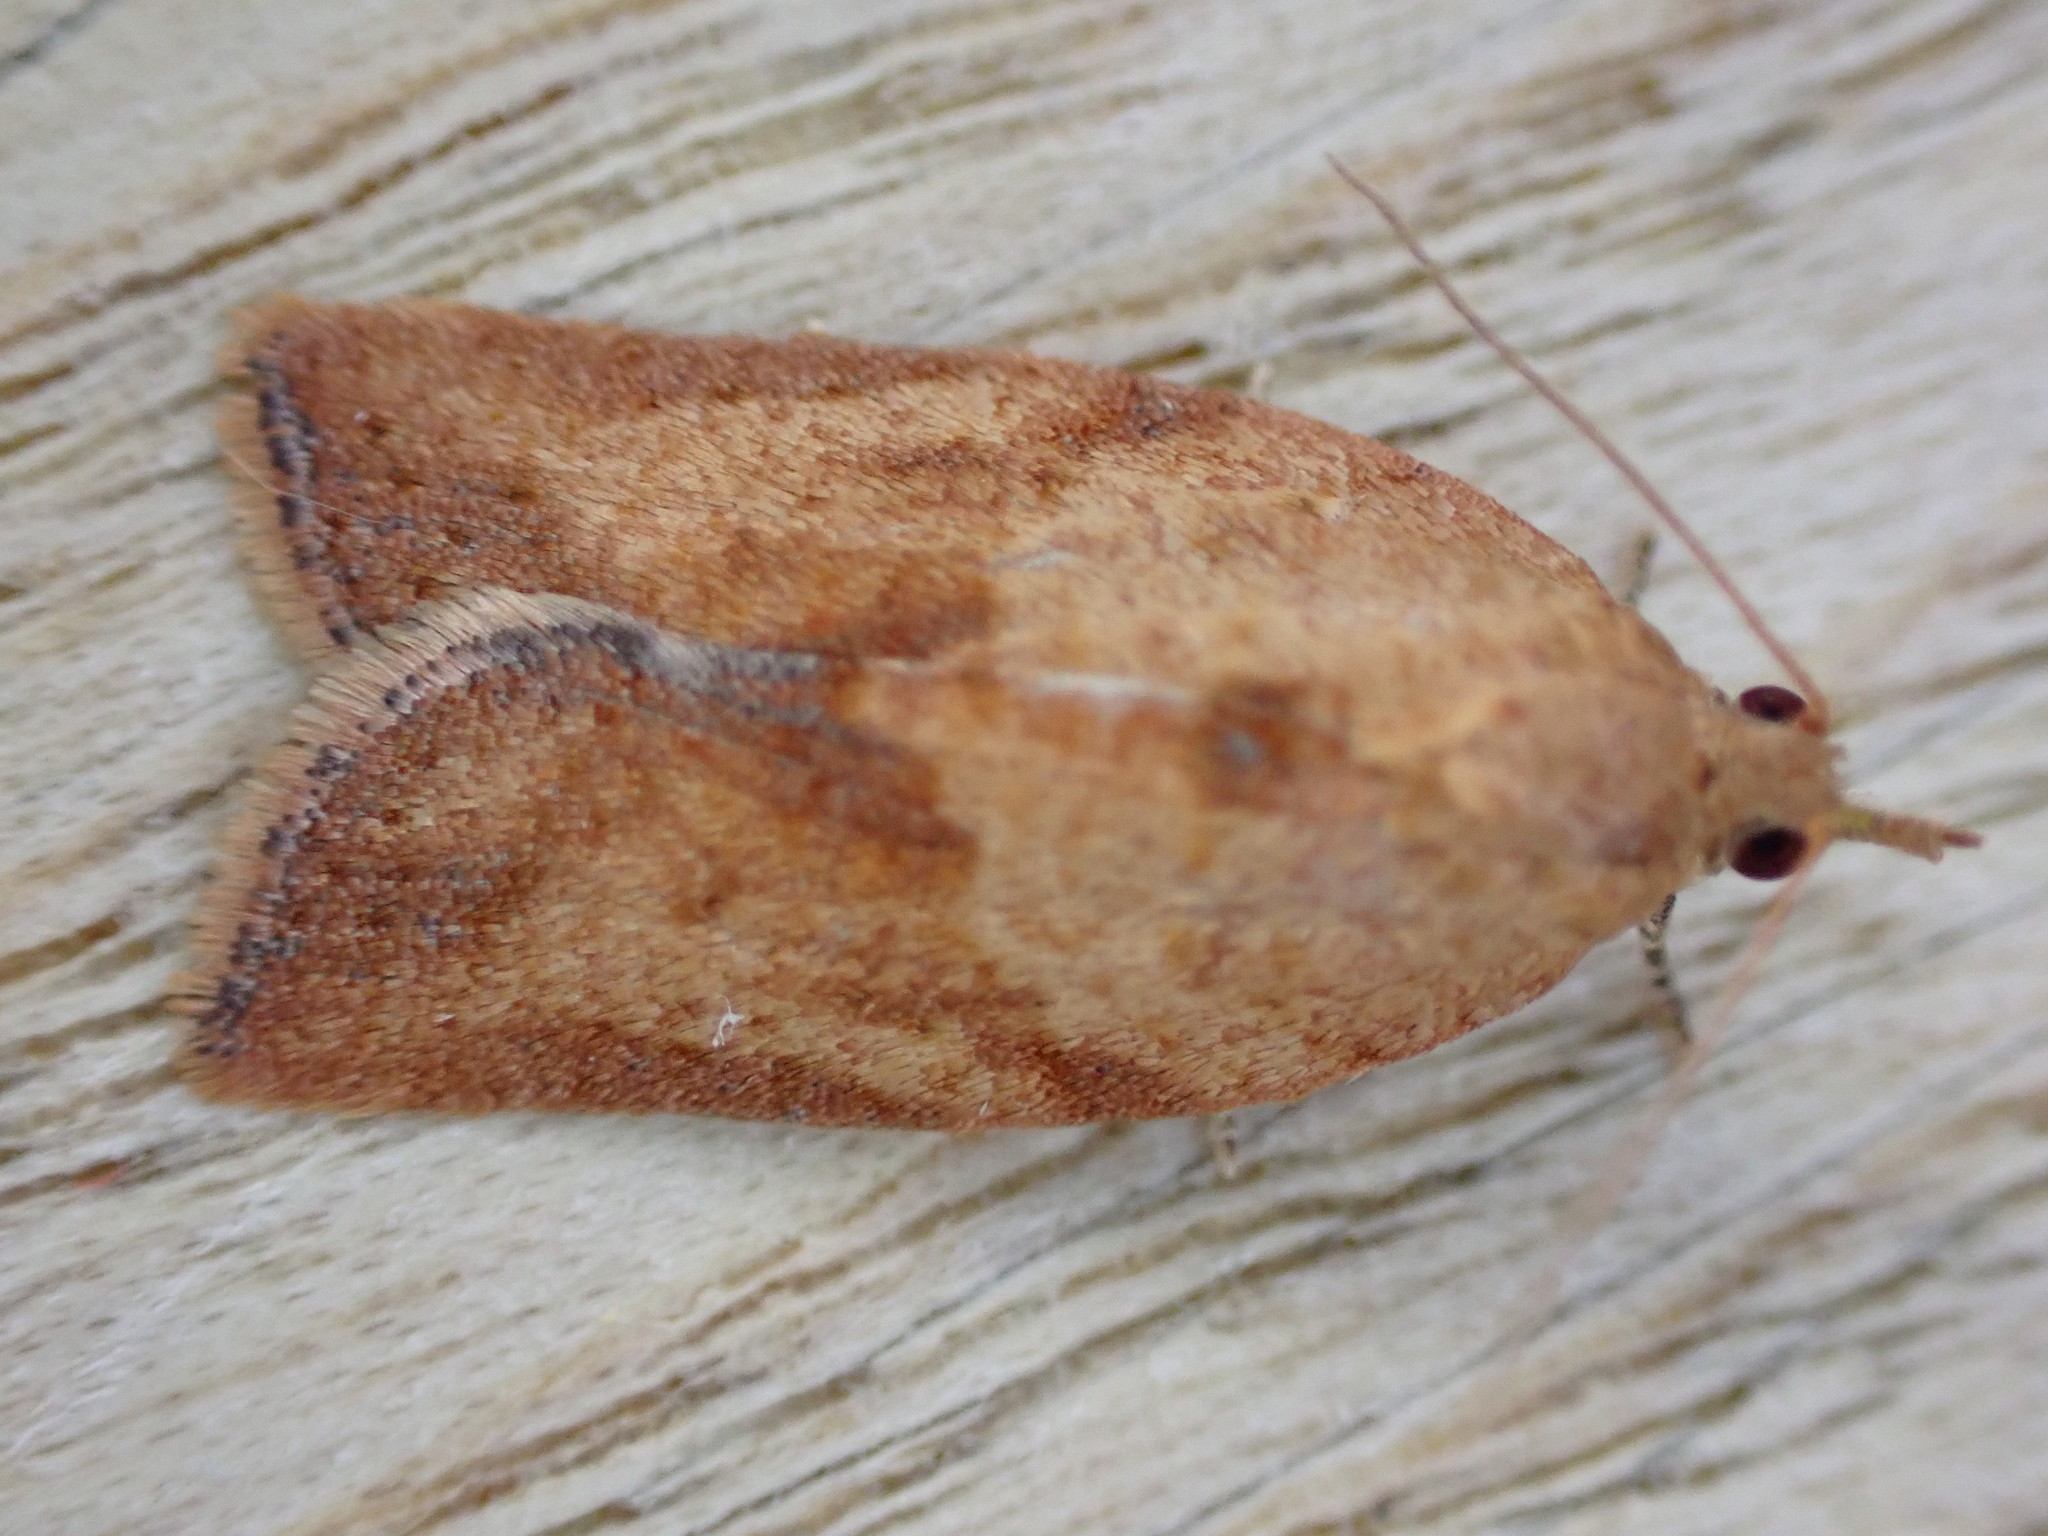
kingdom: Animalia
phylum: Arthropoda
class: Insecta
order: Lepidoptera
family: Tortricidae
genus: Epiphyas
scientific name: Epiphyas postvittana
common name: Light brown apple moth
